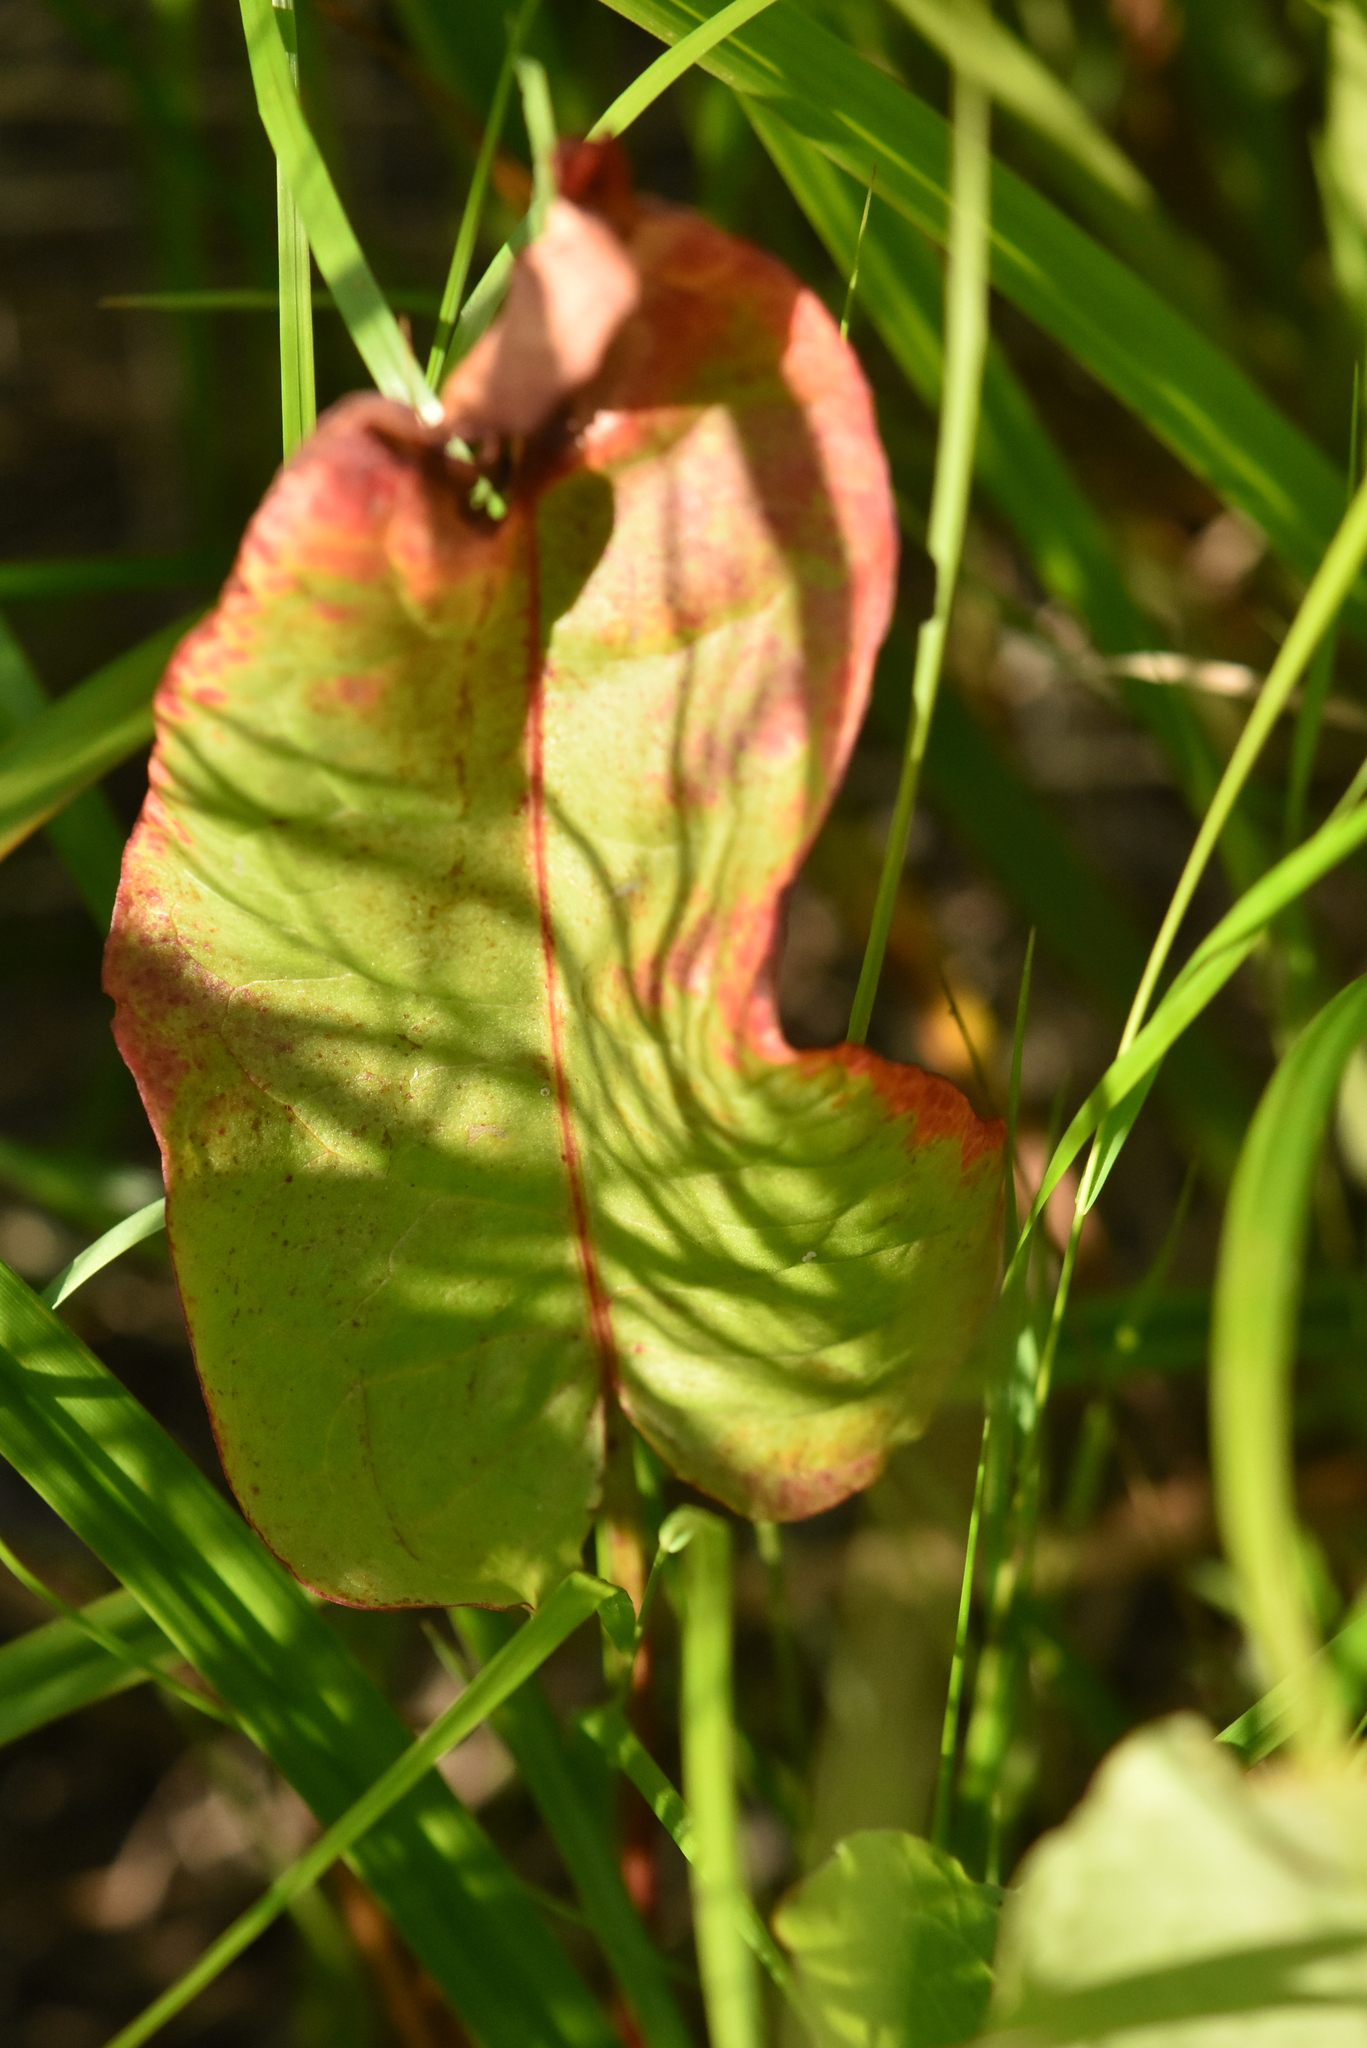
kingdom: Plantae
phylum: Tracheophyta
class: Magnoliopsida
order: Caryophyllales
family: Polygonaceae
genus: Rumex
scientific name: Rumex aquaticus
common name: Scottish dock
